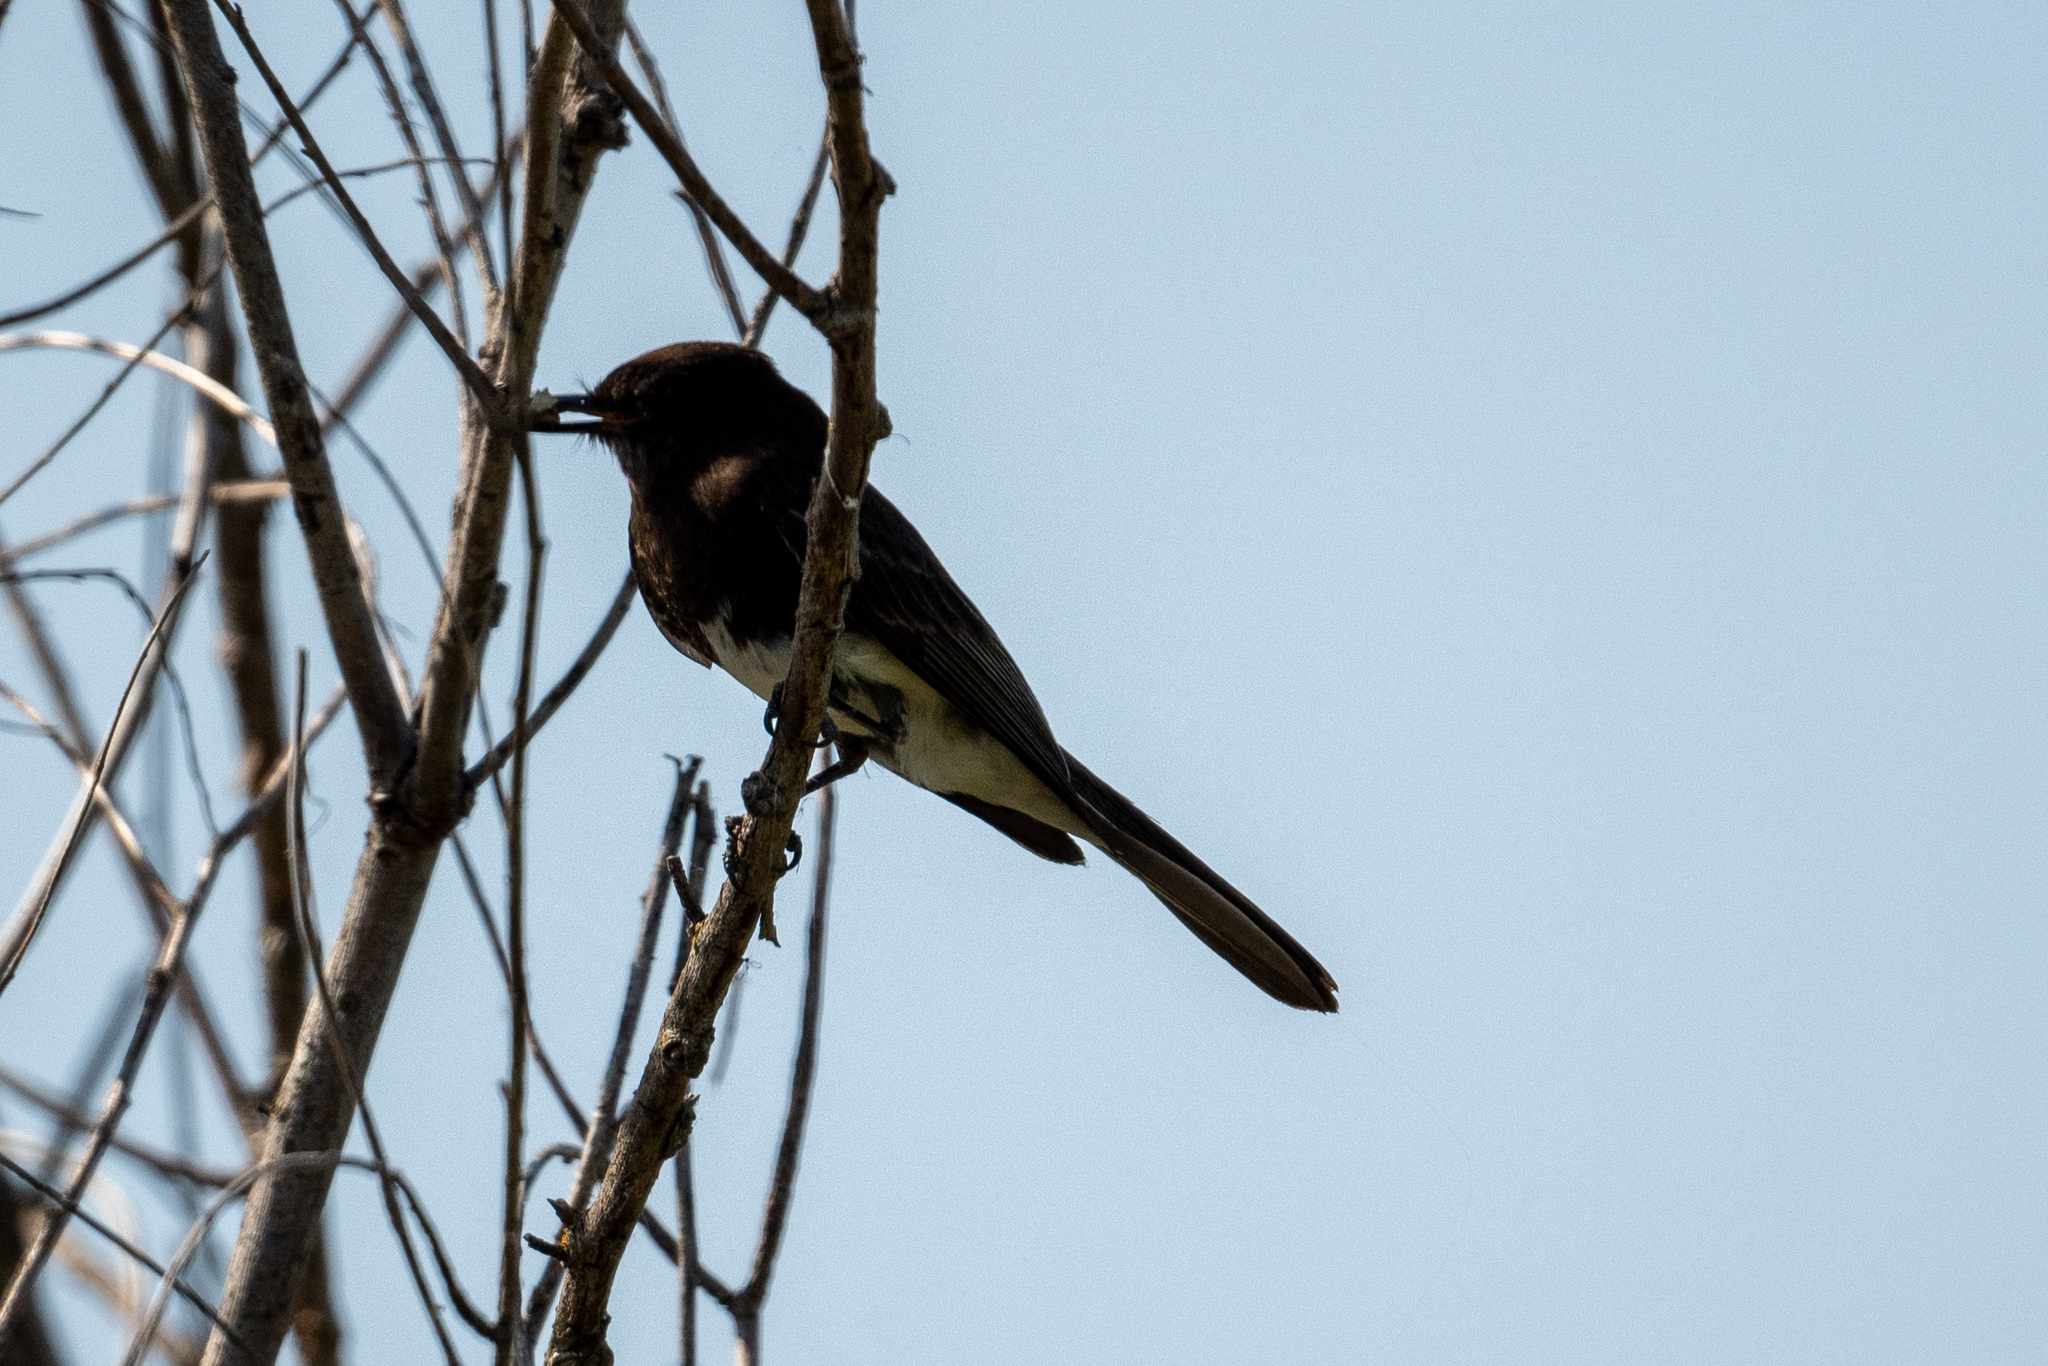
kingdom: Animalia
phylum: Chordata
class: Aves
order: Passeriformes
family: Tyrannidae
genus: Sayornis
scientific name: Sayornis nigricans
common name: Black phoebe
